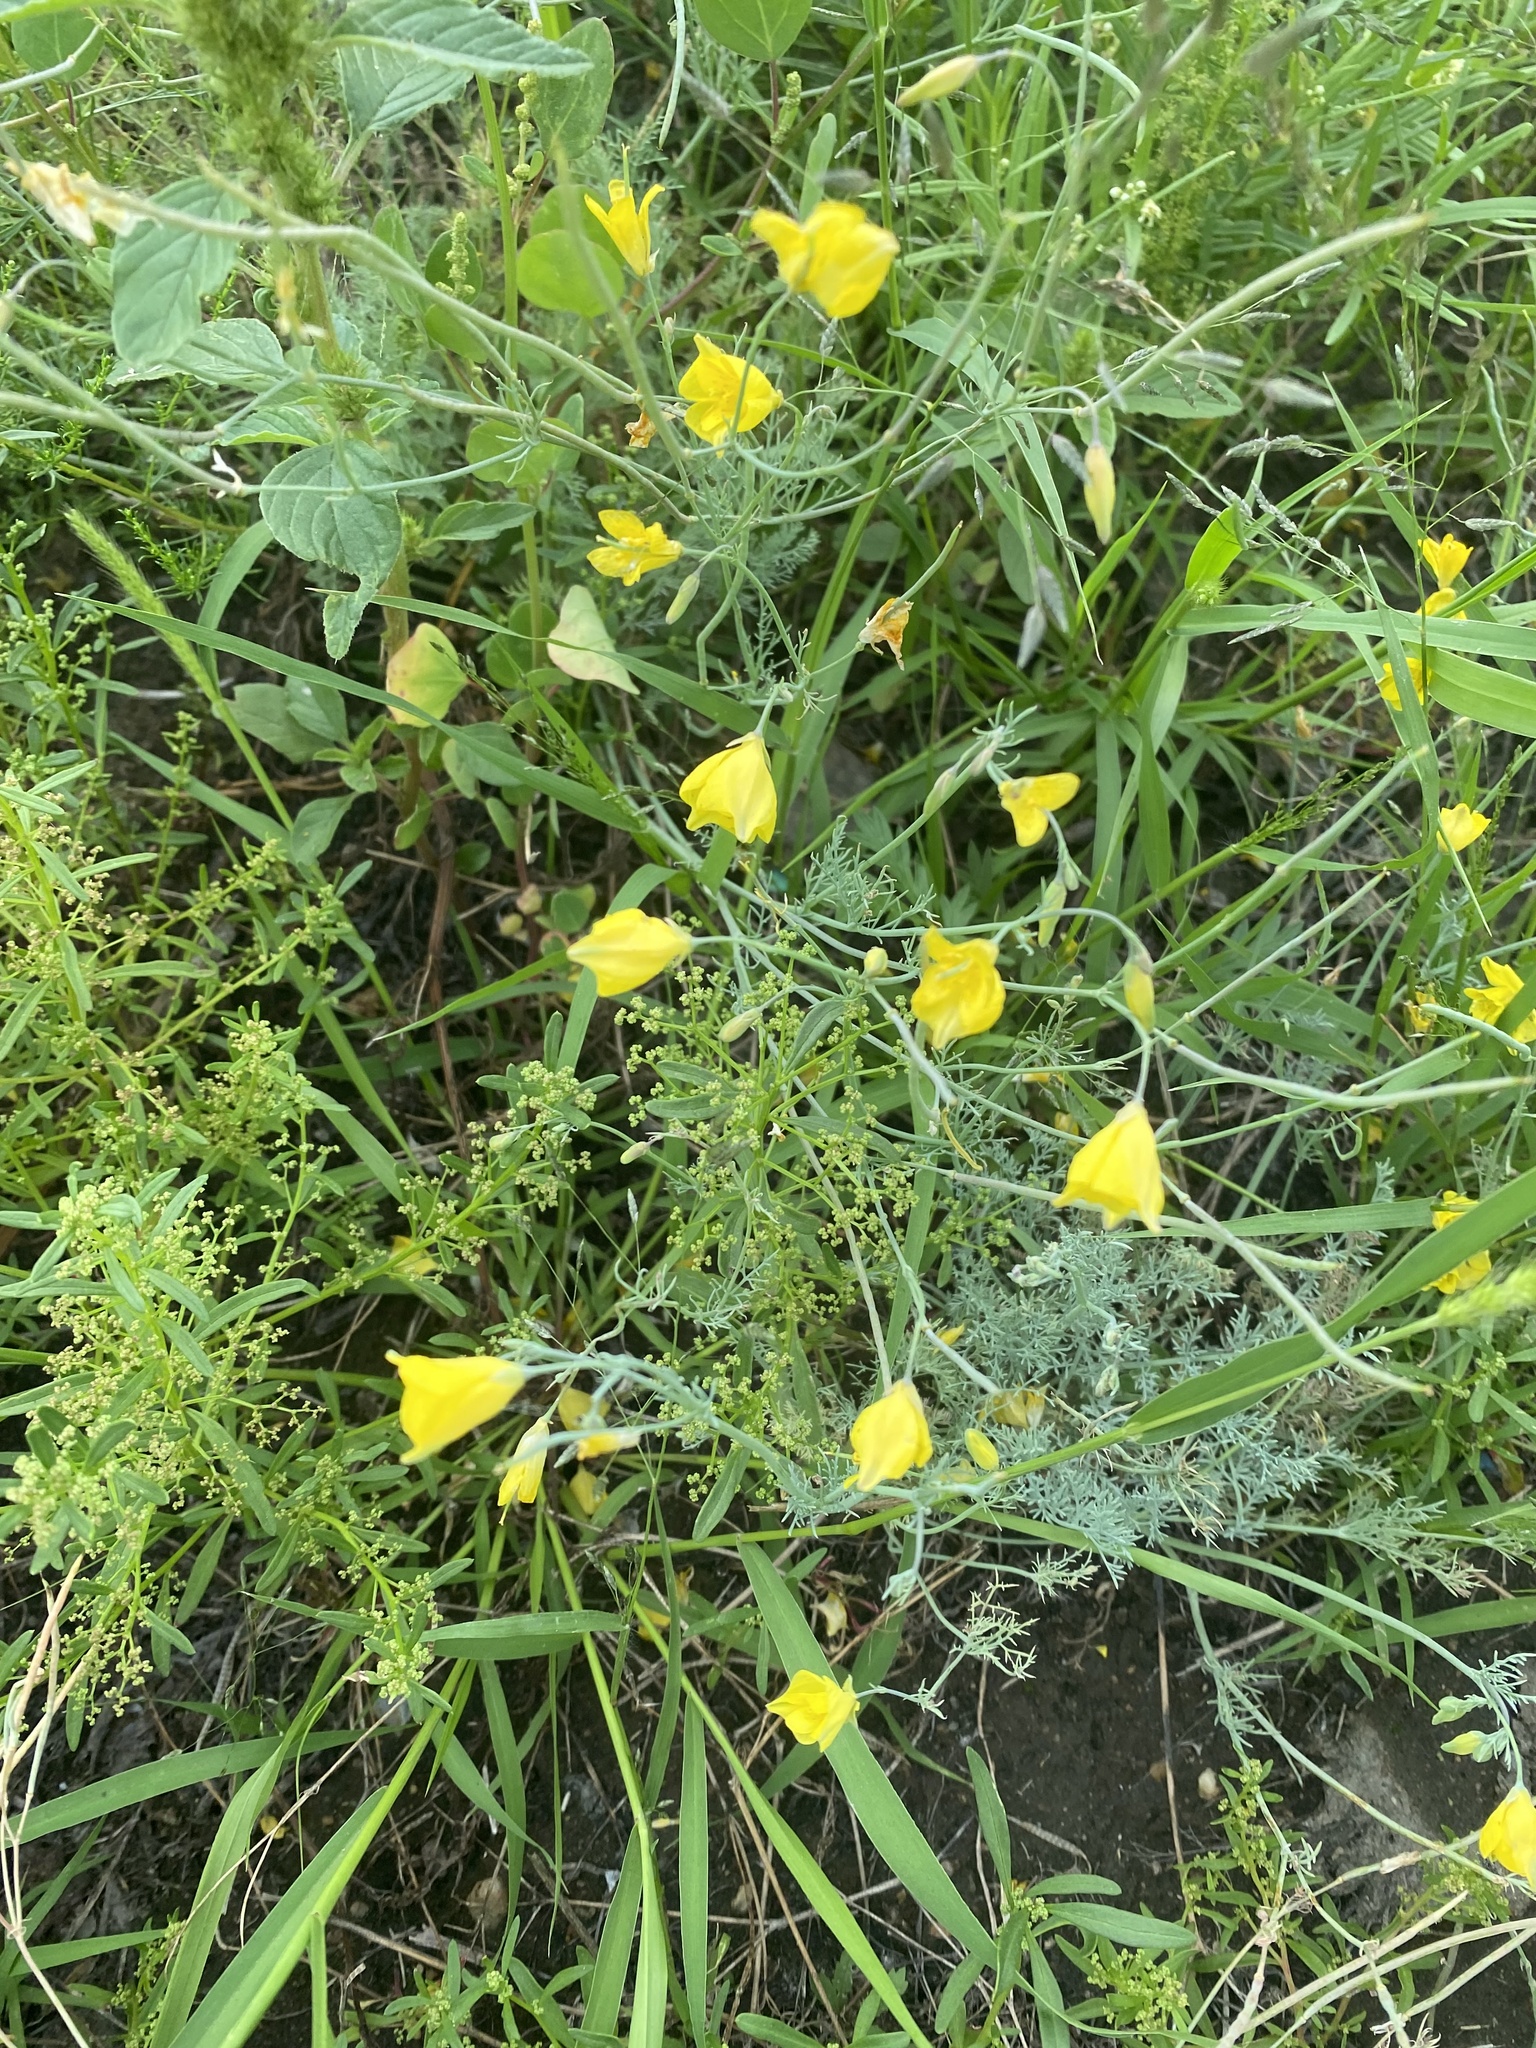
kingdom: Plantae
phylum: Tracheophyta
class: Magnoliopsida
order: Ranunculales
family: Papaveraceae
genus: Hypecoum
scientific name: Hypecoum erectum
